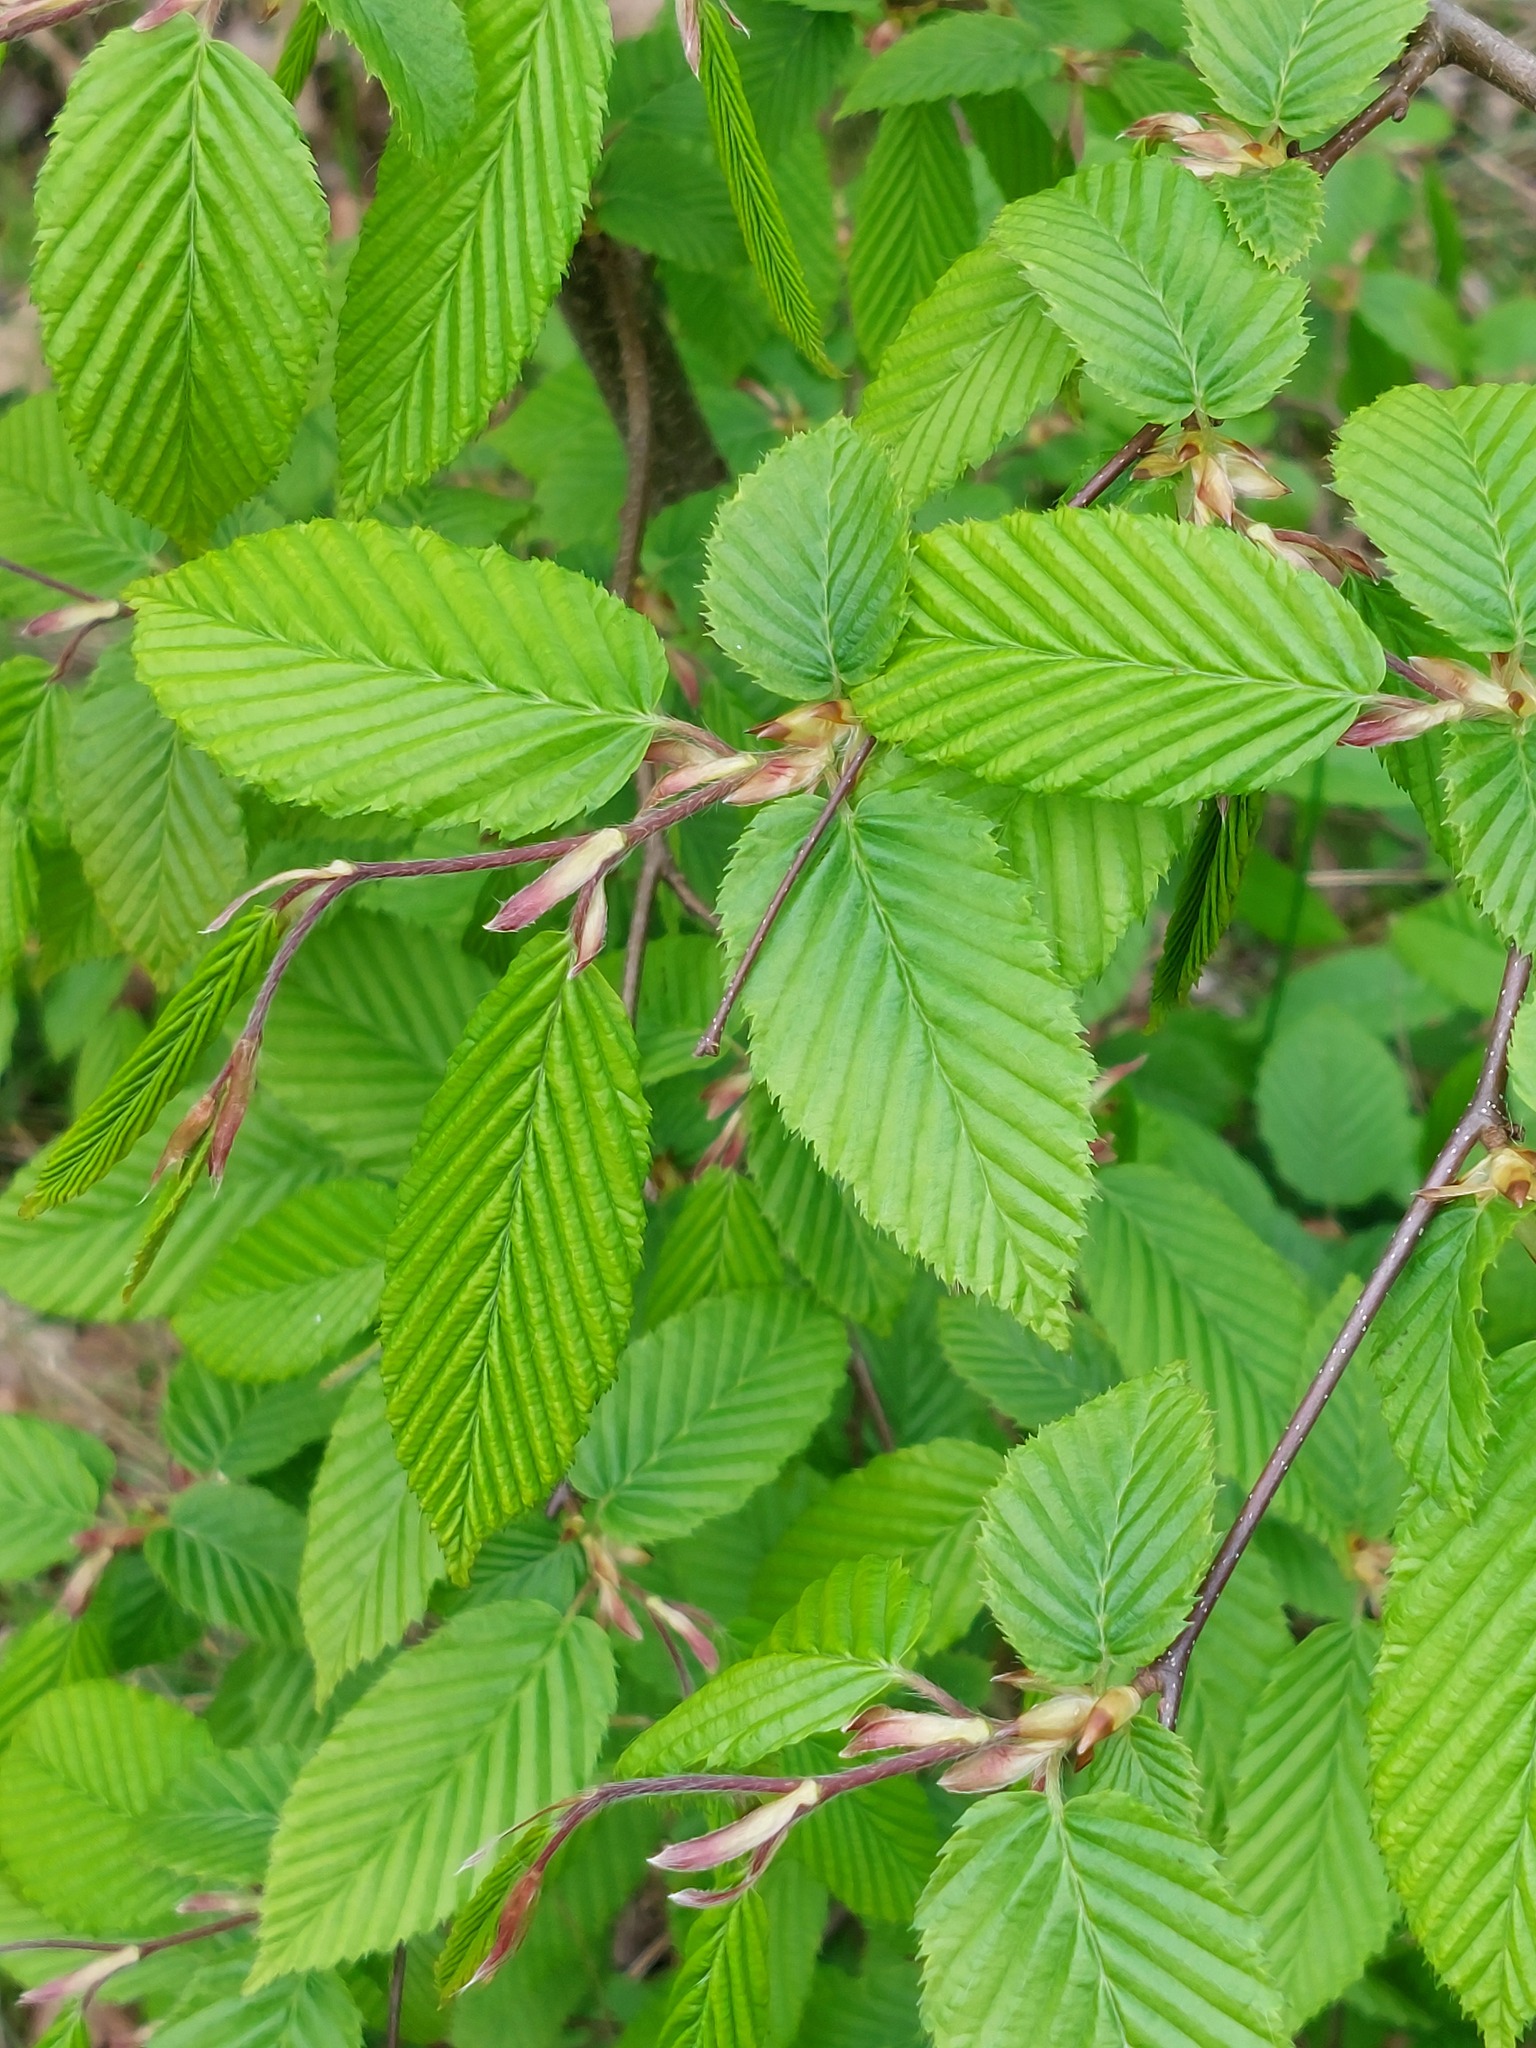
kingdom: Plantae
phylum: Tracheophyta
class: Magnoliopsida
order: Fagales
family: Betulaceae
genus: Carpinus
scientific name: Carpinus betulus
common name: Hornbeam
